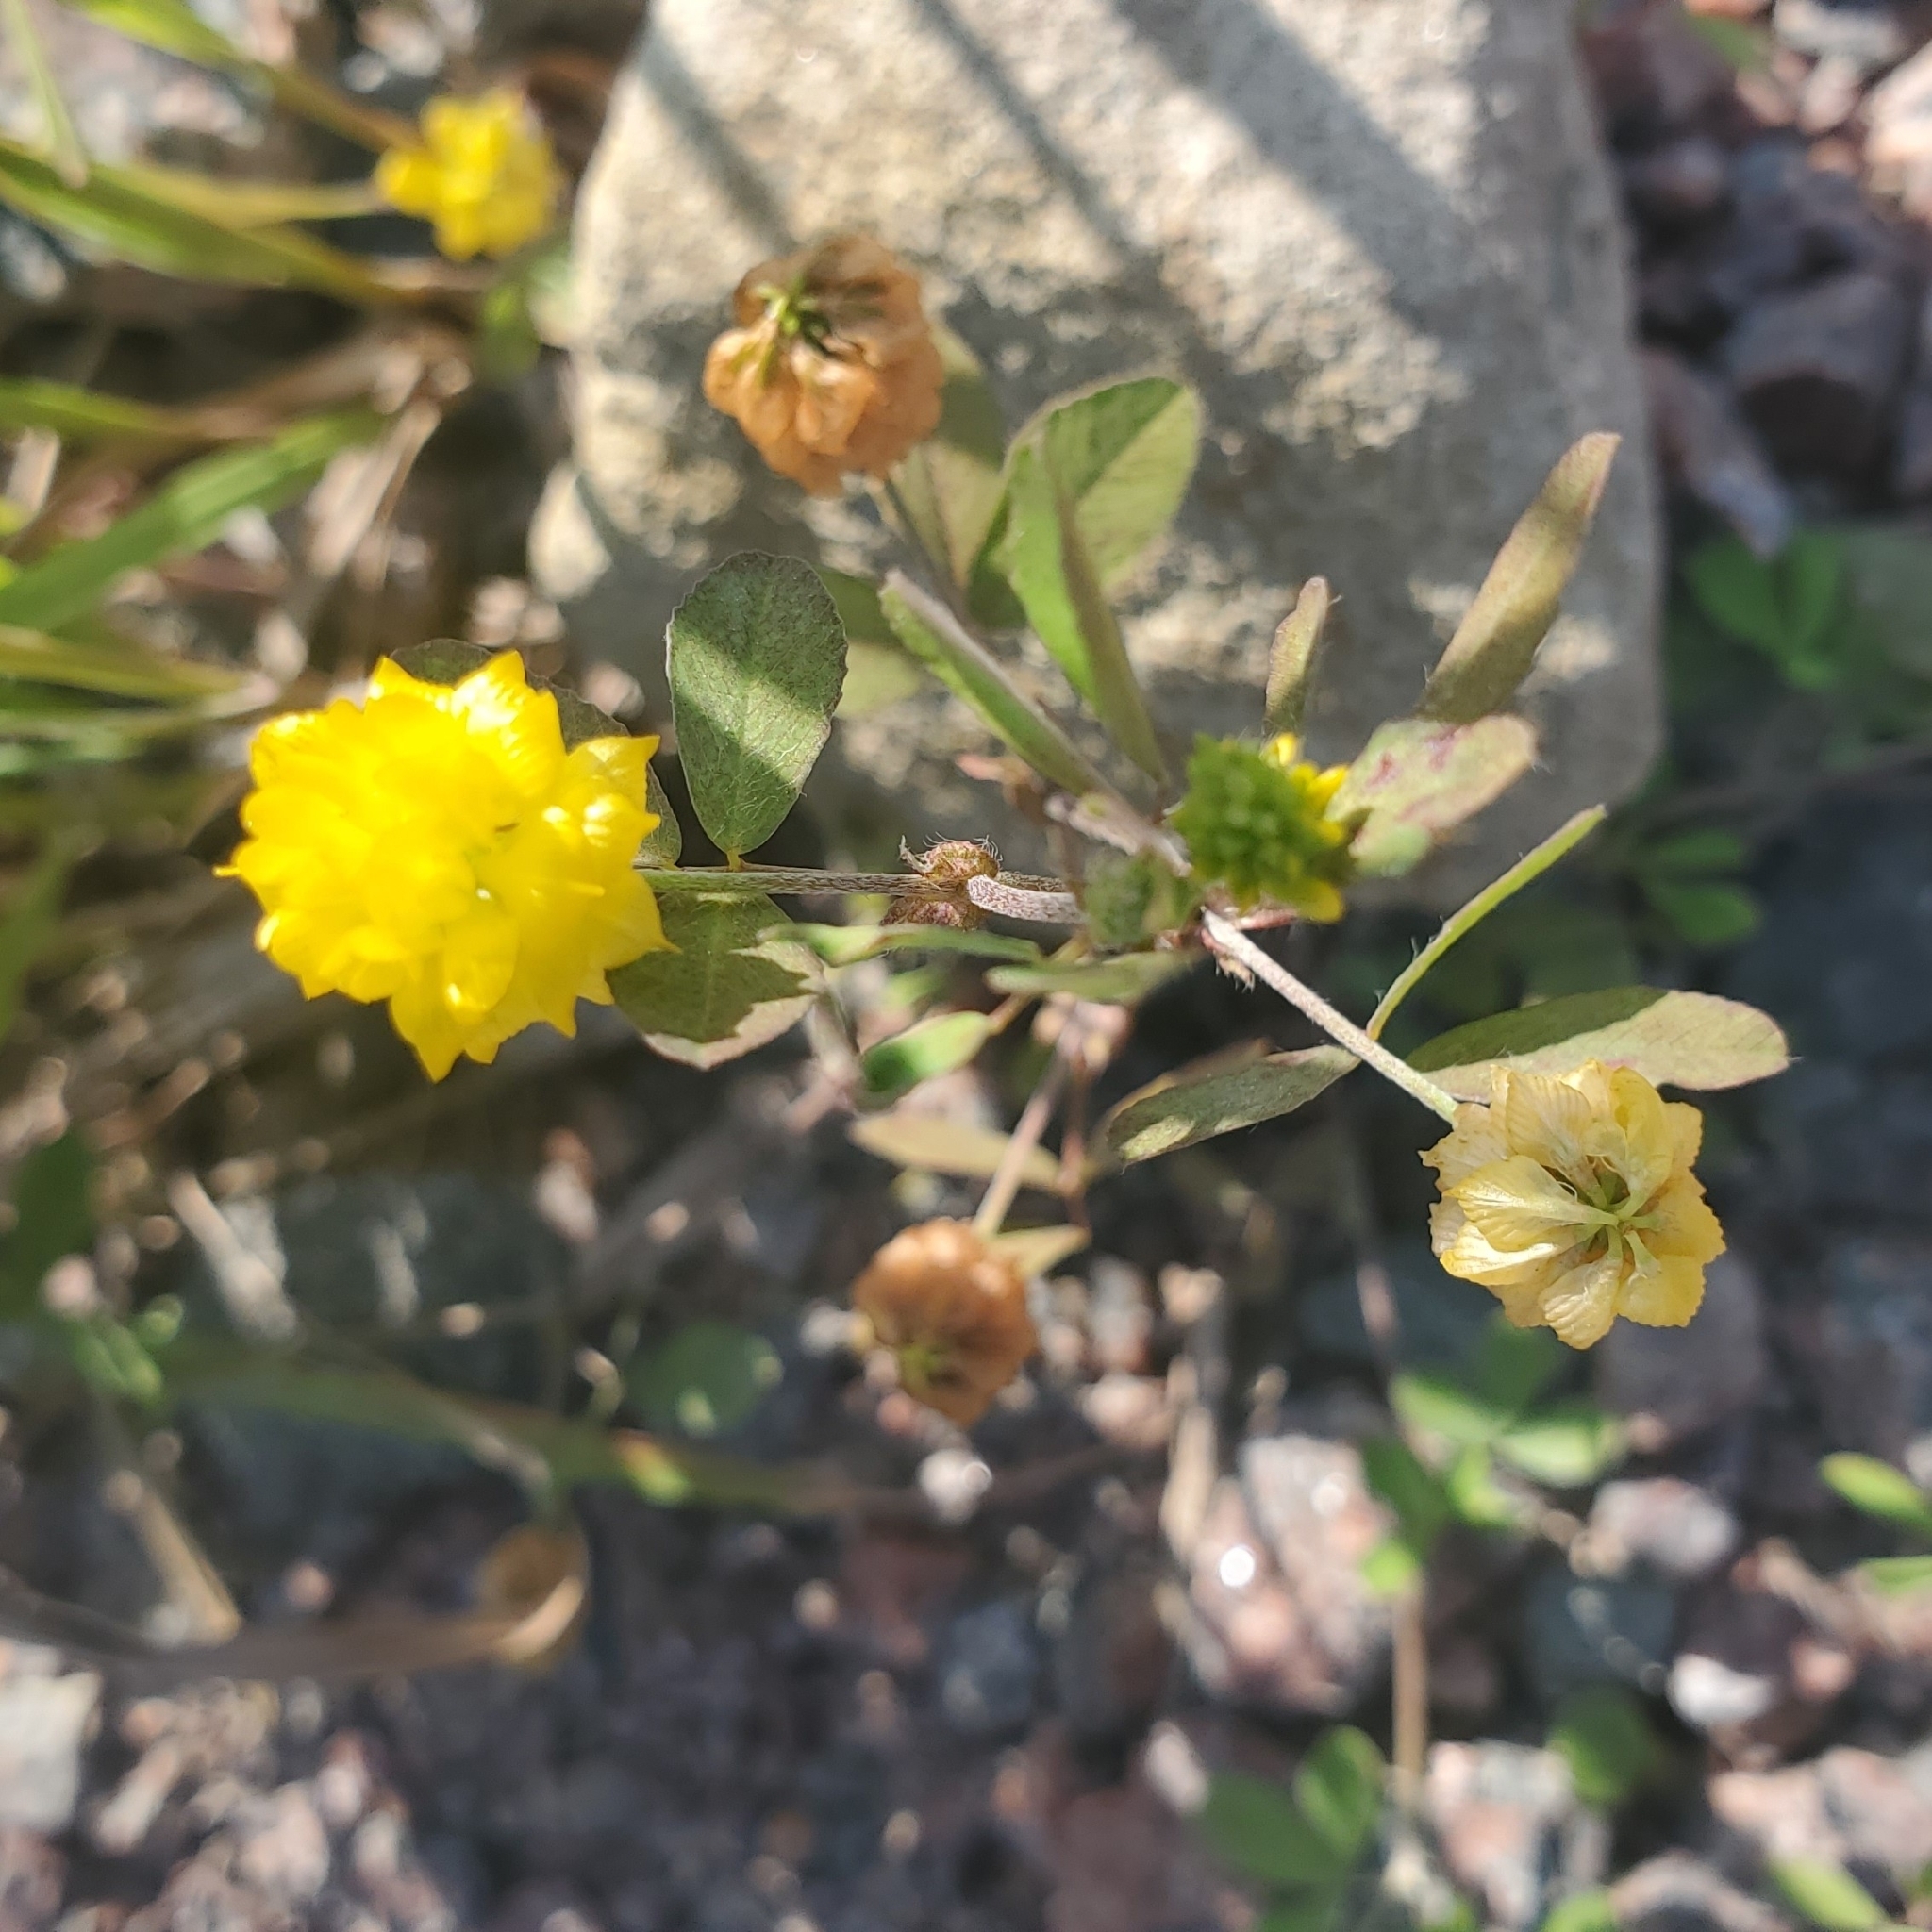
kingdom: Plantae
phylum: Tracheophyta
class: Magnoliopsida
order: Fabales
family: Fabaceae
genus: Trifolium
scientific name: Trifolium campestre
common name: Field clover
